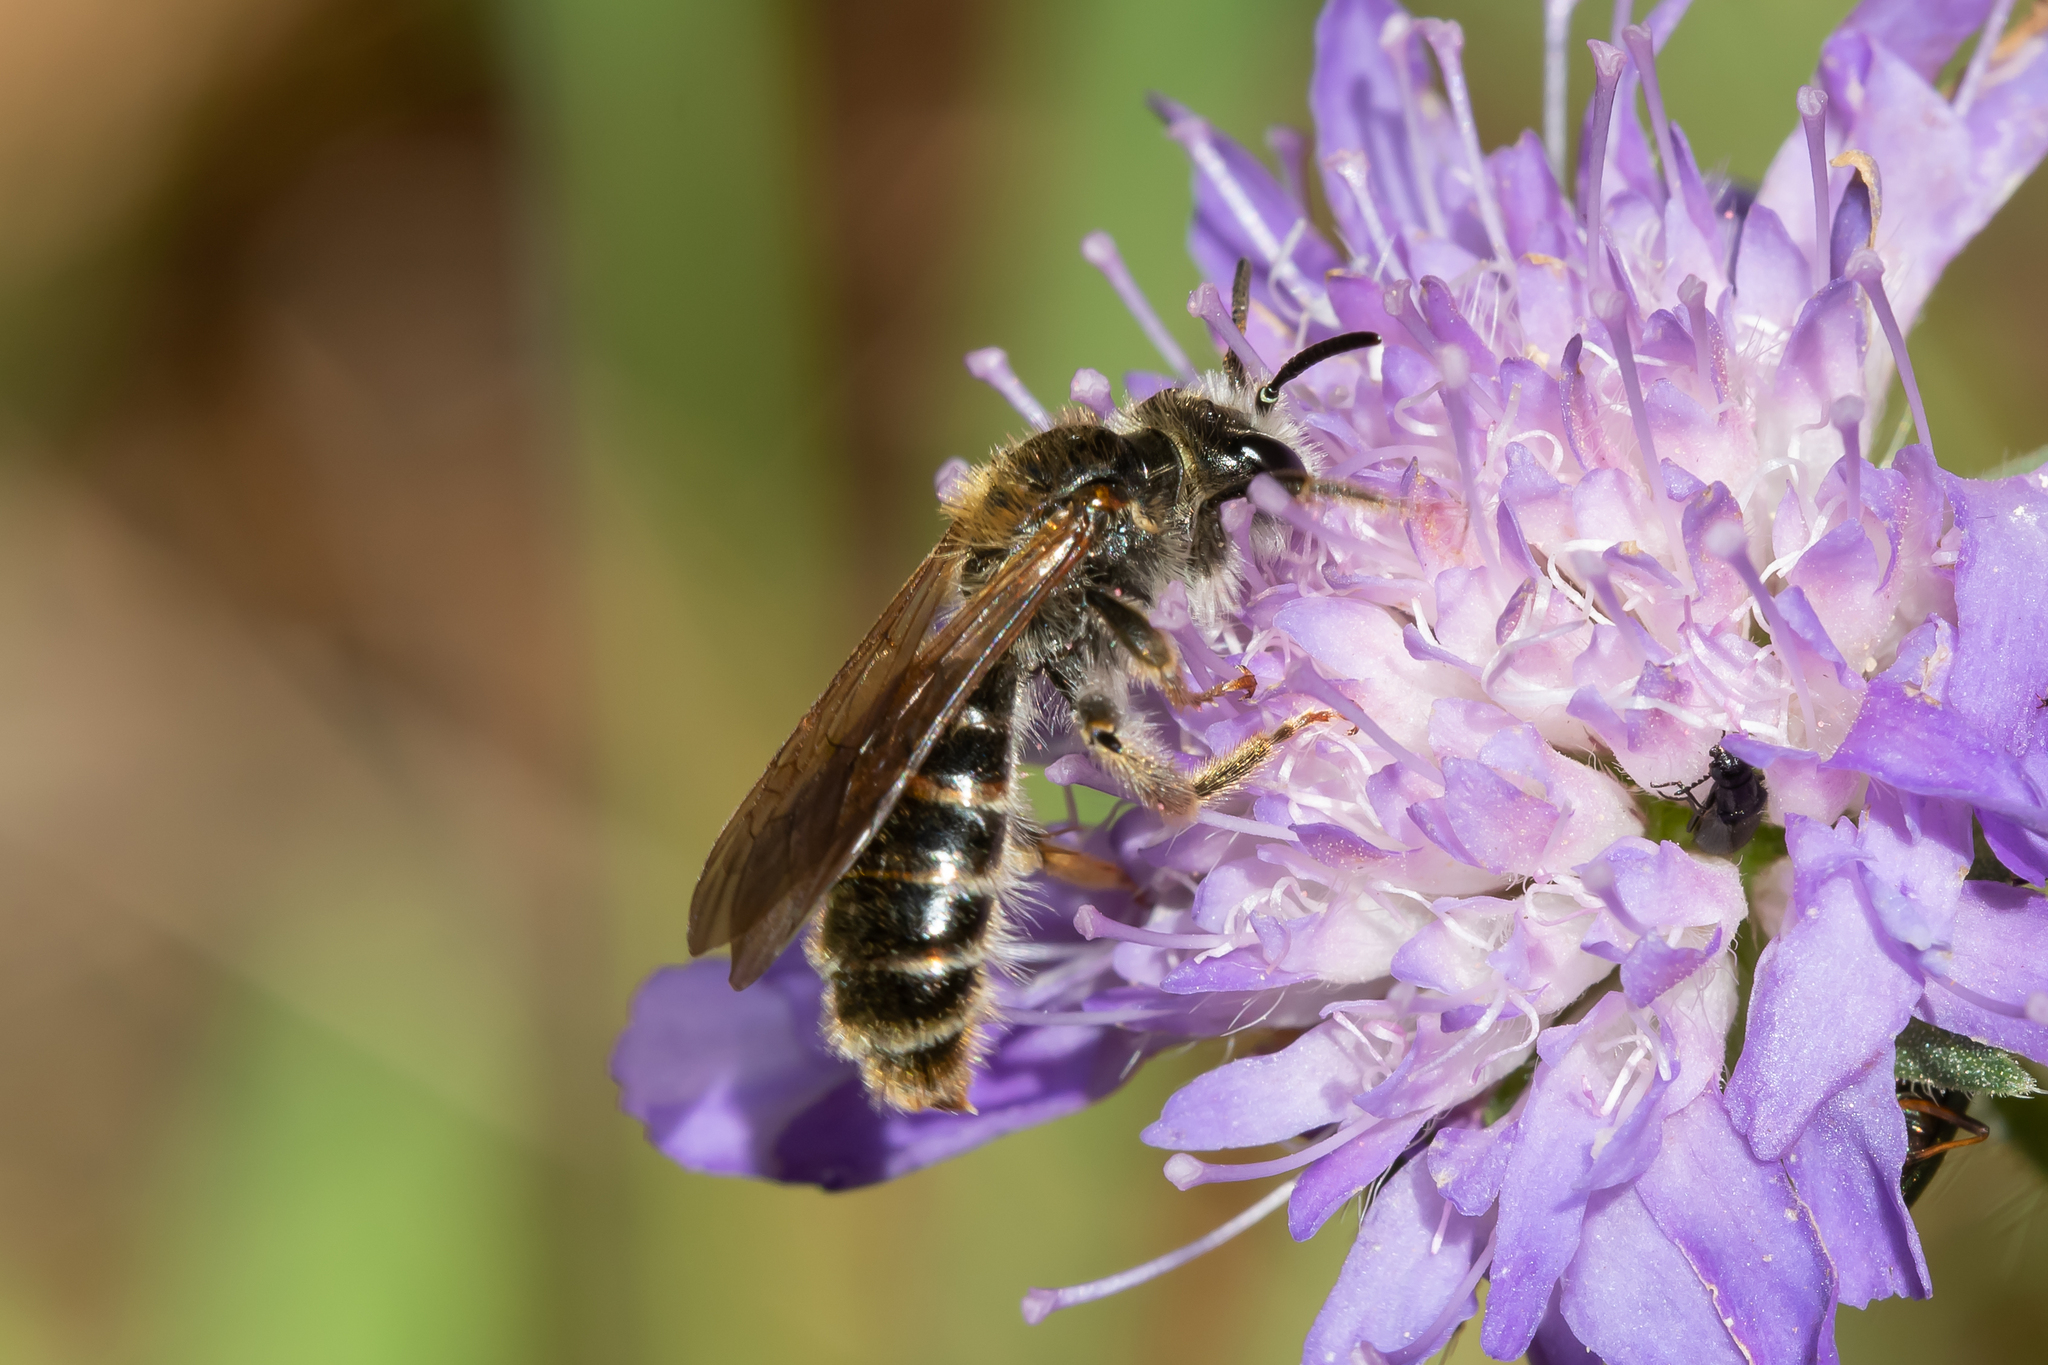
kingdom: Animalia
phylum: Arthropoda
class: Insecta
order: Hymenoptera
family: Andrenidae
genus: Andrena
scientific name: Andrena hattorfiana
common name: Large scabious mining bee
